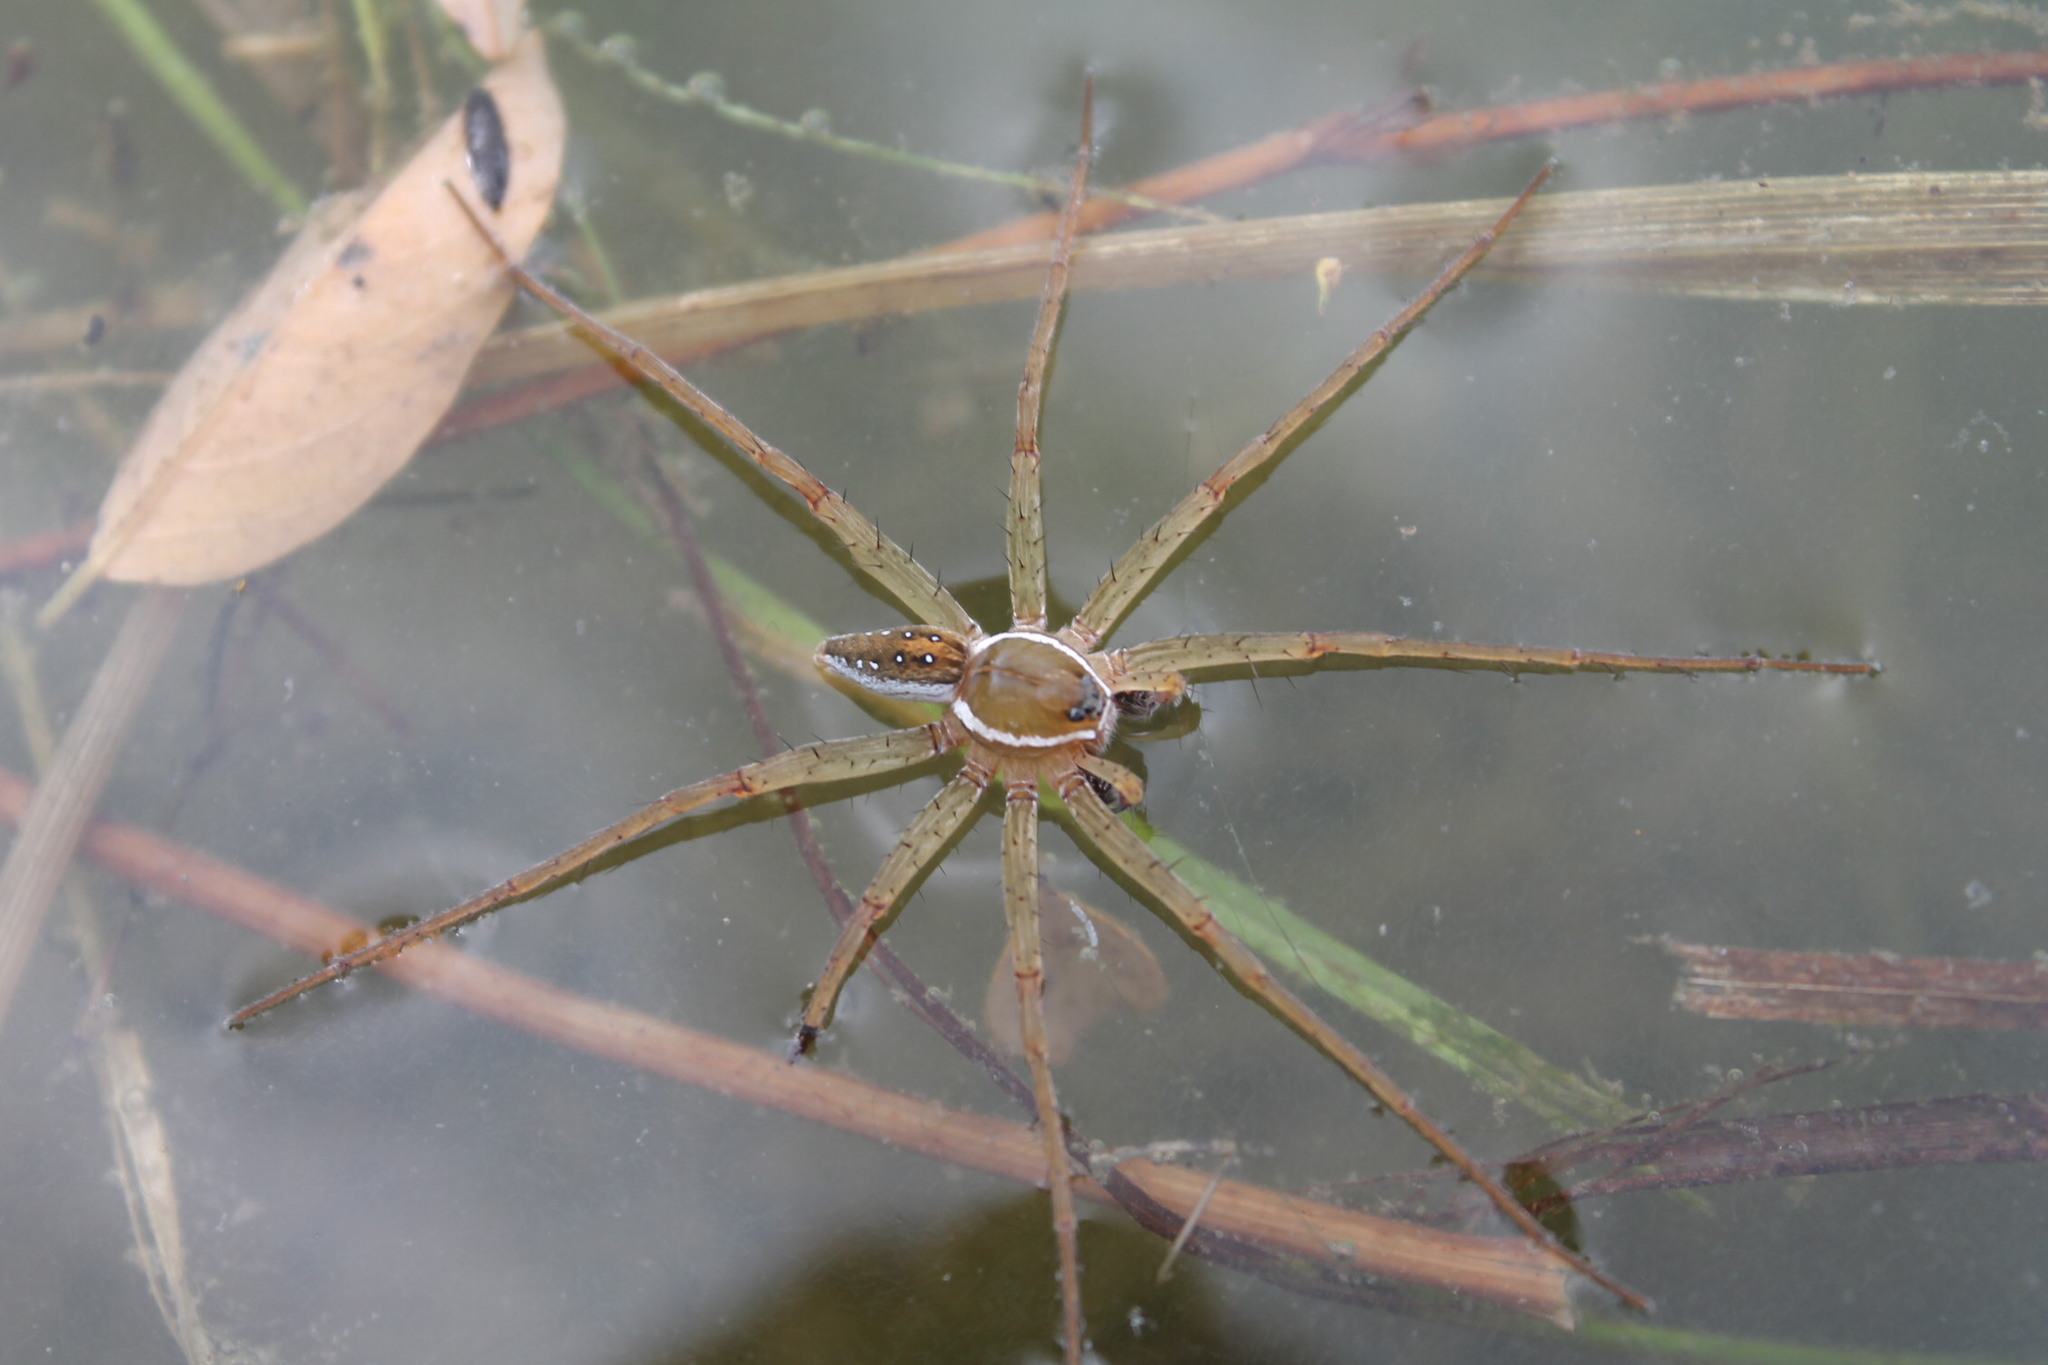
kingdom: Animalia
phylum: Arthropoda
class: Arachnida
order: Araneae
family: Pisauridae
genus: Dolomedes
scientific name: Dolomedes triton
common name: Six-spotted fishing spider
